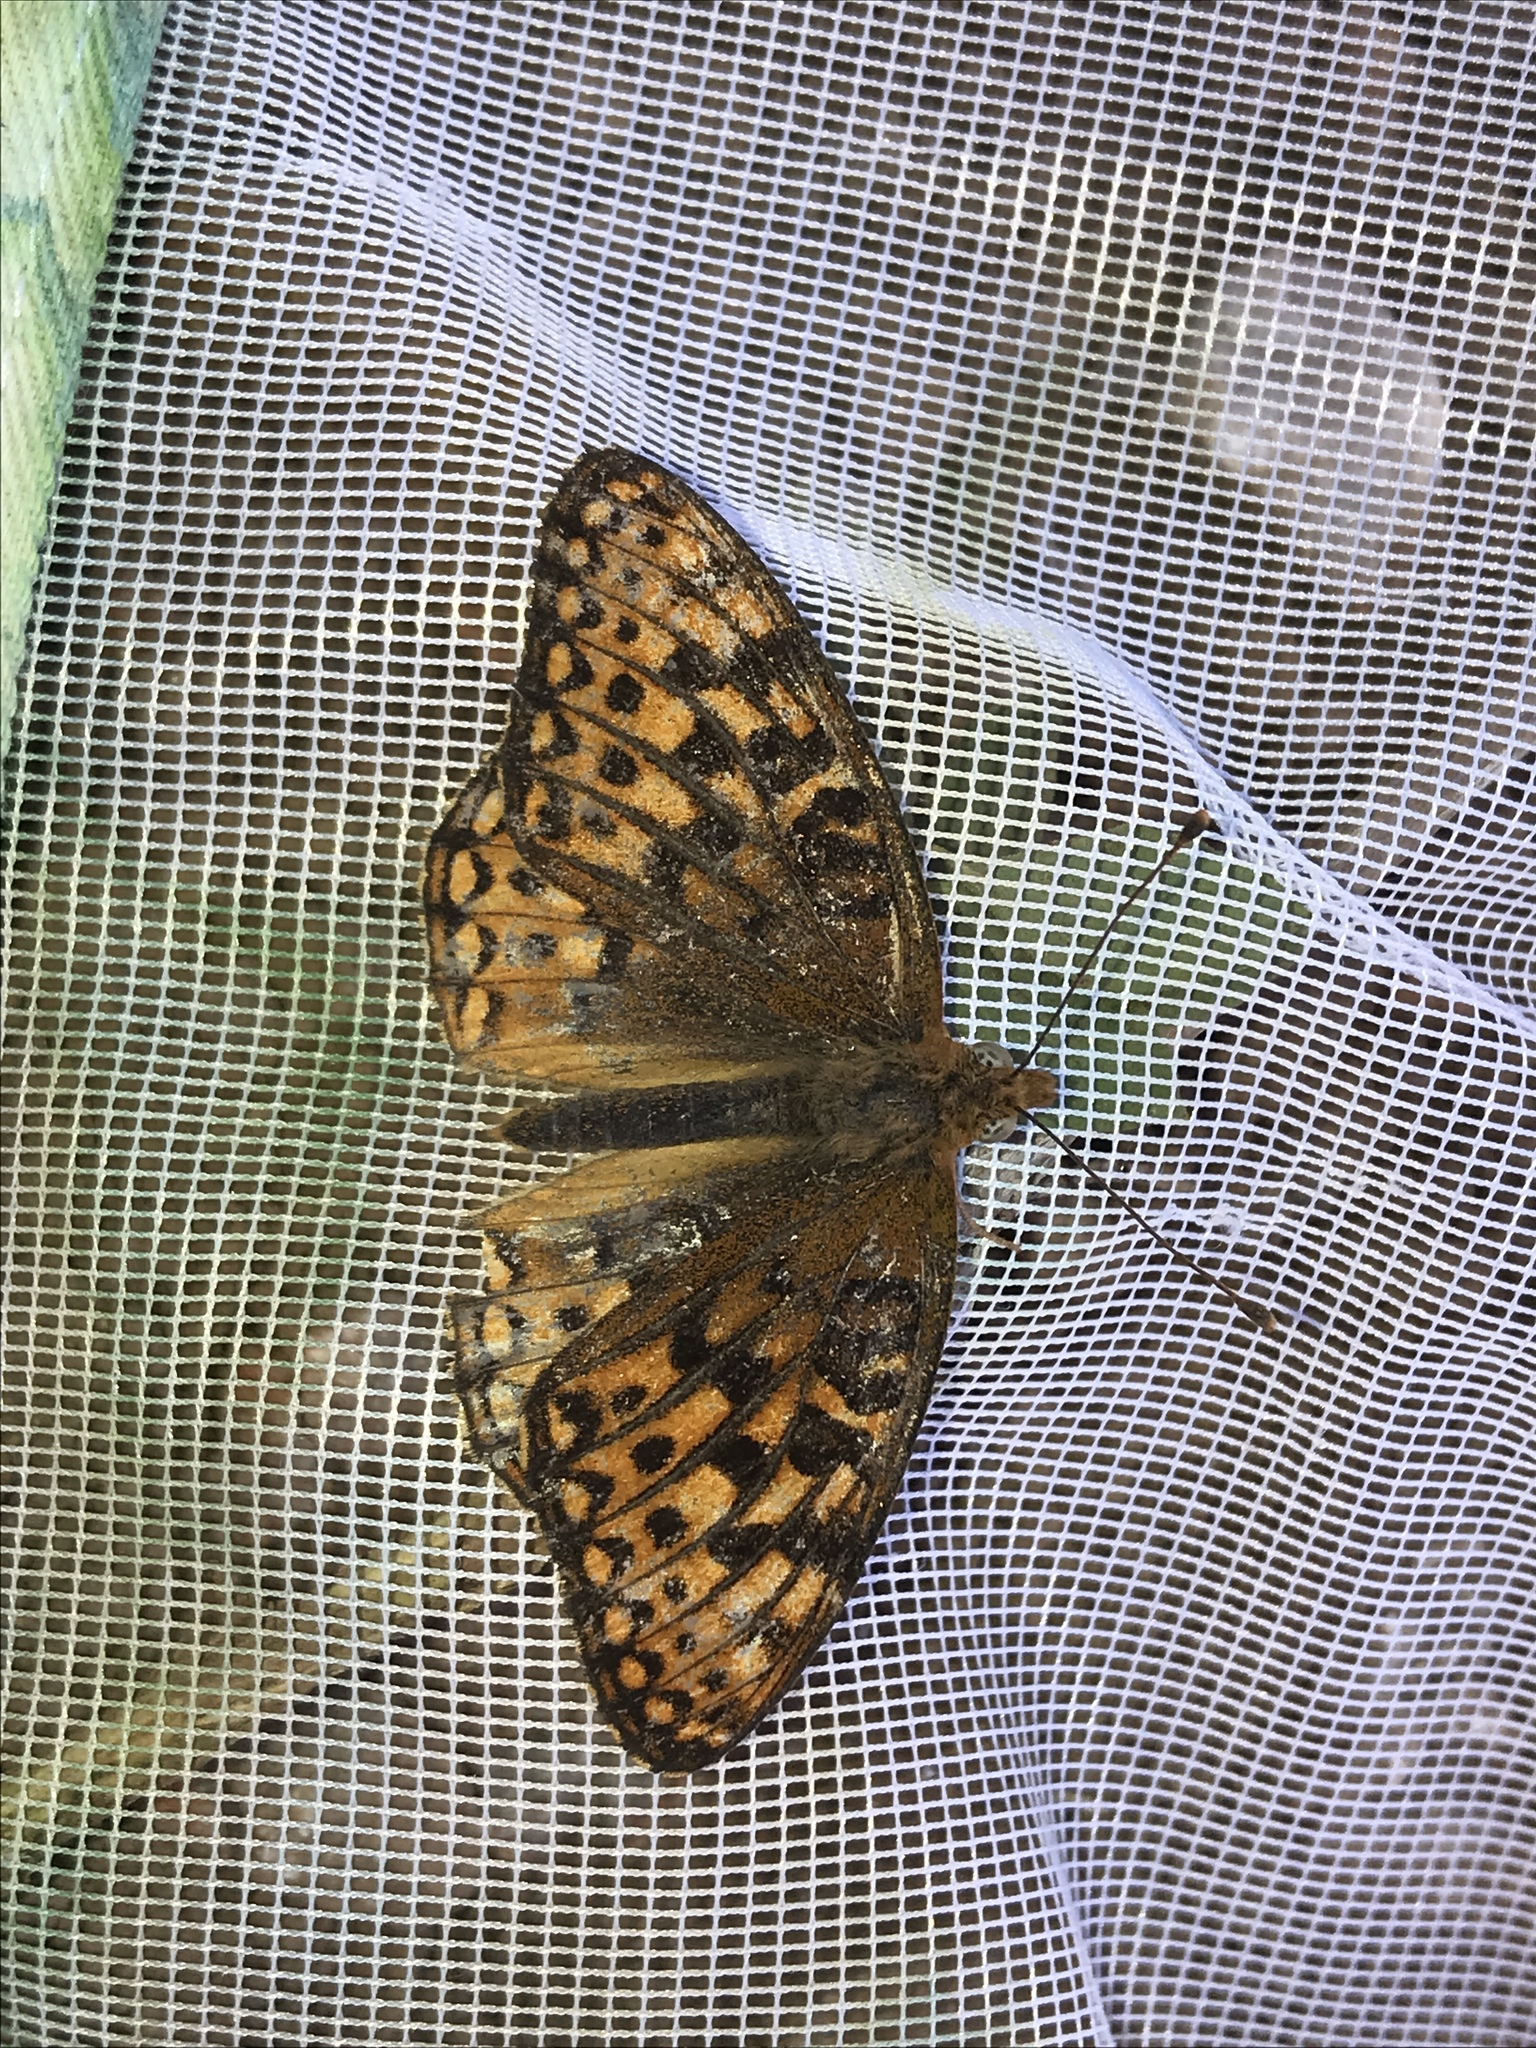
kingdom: Animalia
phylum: Arthropoda
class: Insecta
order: Lepidoptera
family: Nymphalidae
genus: Speyeria
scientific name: Speyeria egleis
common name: Great basin fritillary
